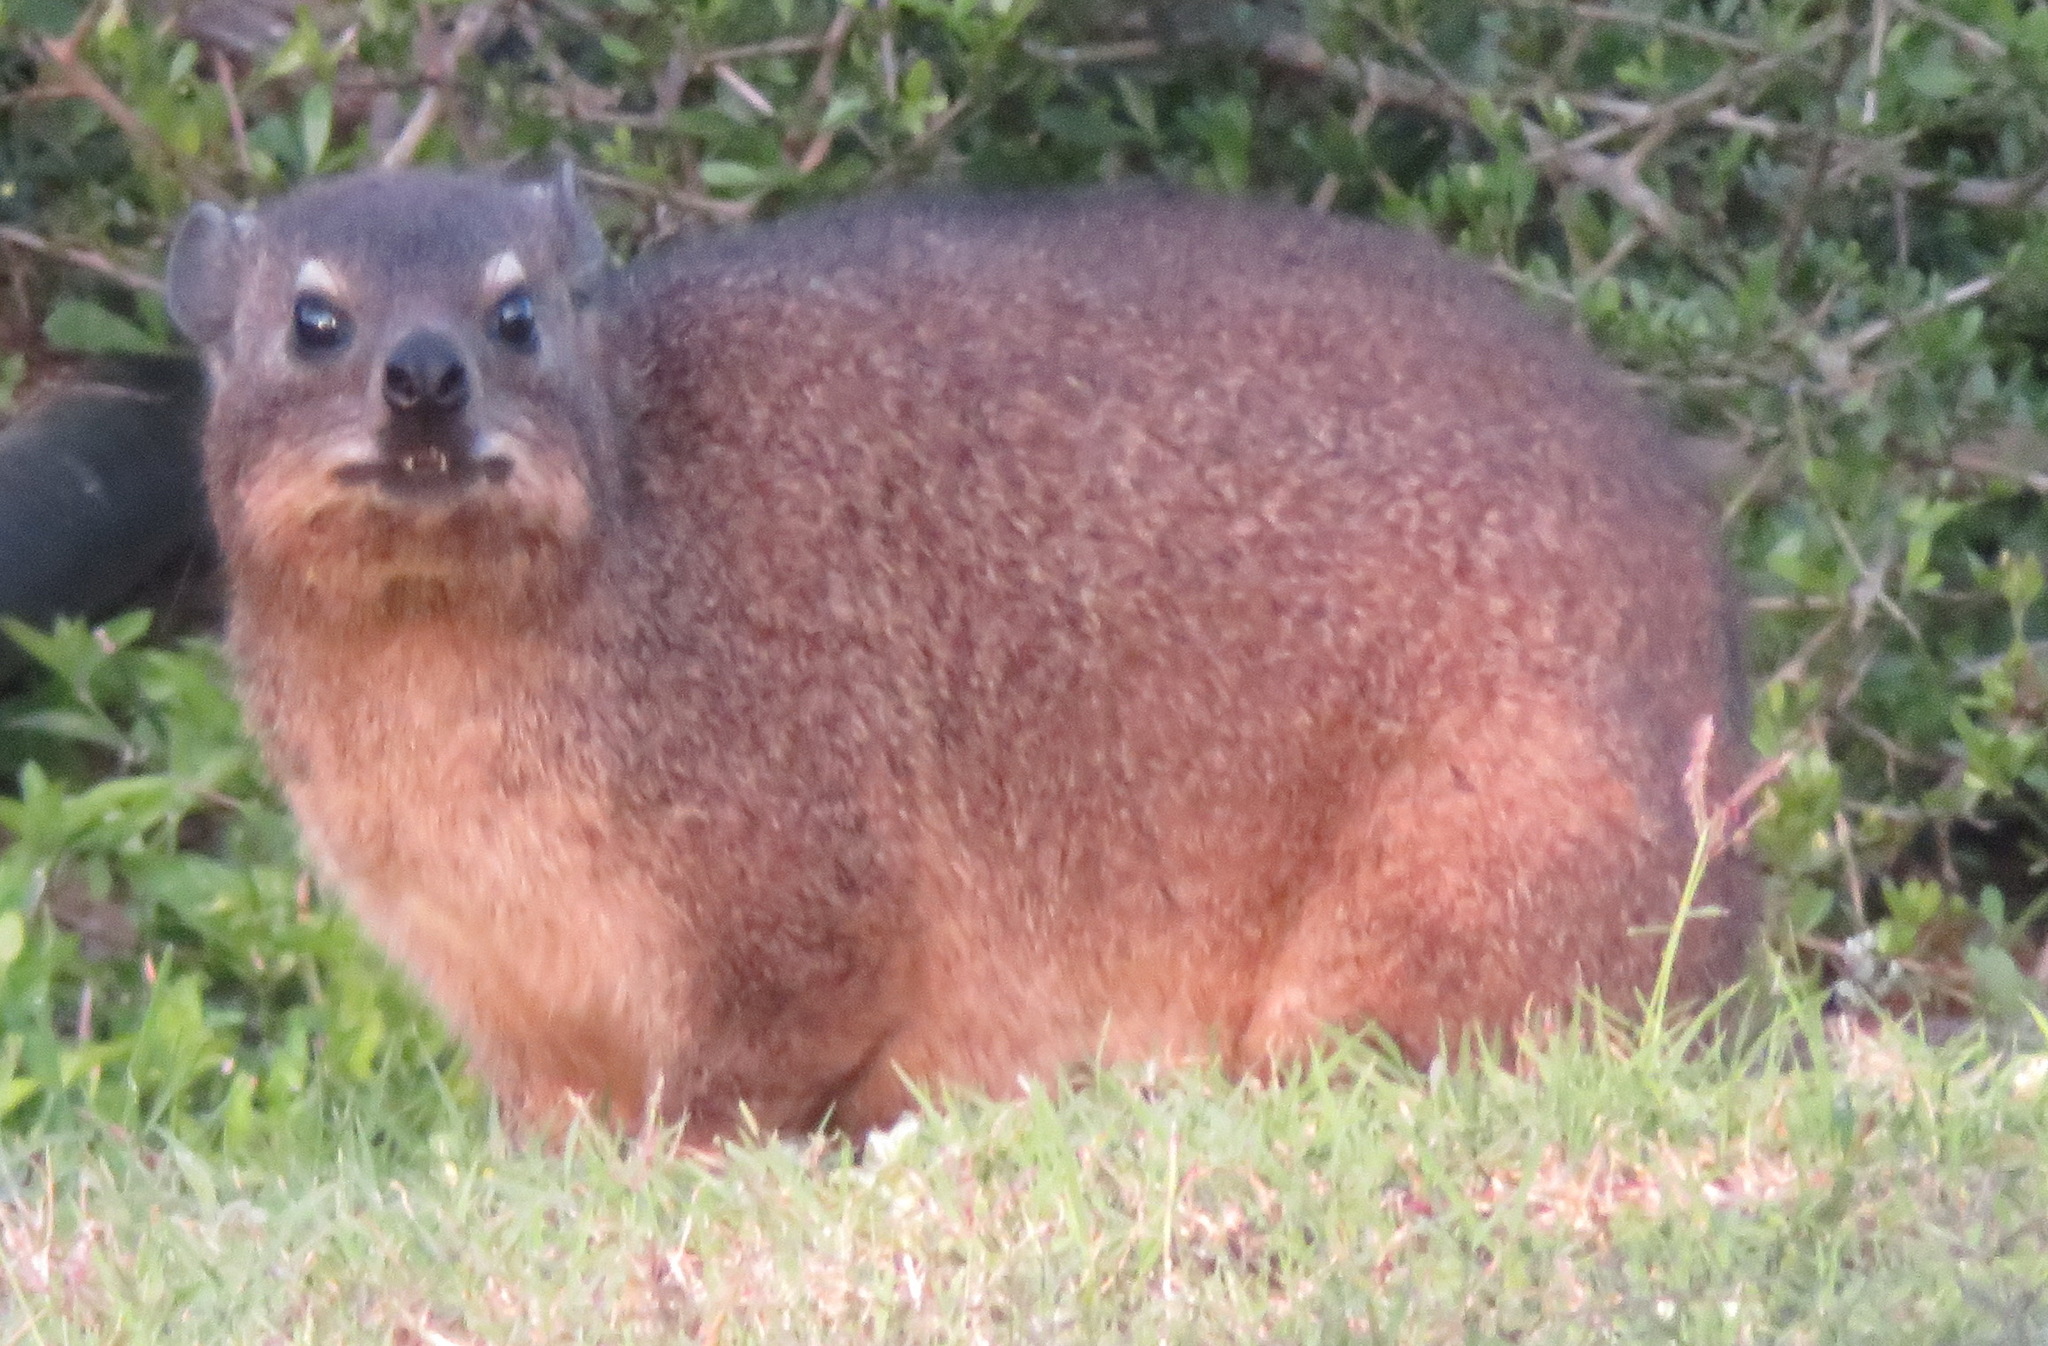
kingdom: Animalia
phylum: Chordata
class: Mammalia
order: Hyracoidea
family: Procaviidae
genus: Procavia
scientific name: Procavia capensis
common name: Rock hyrax
